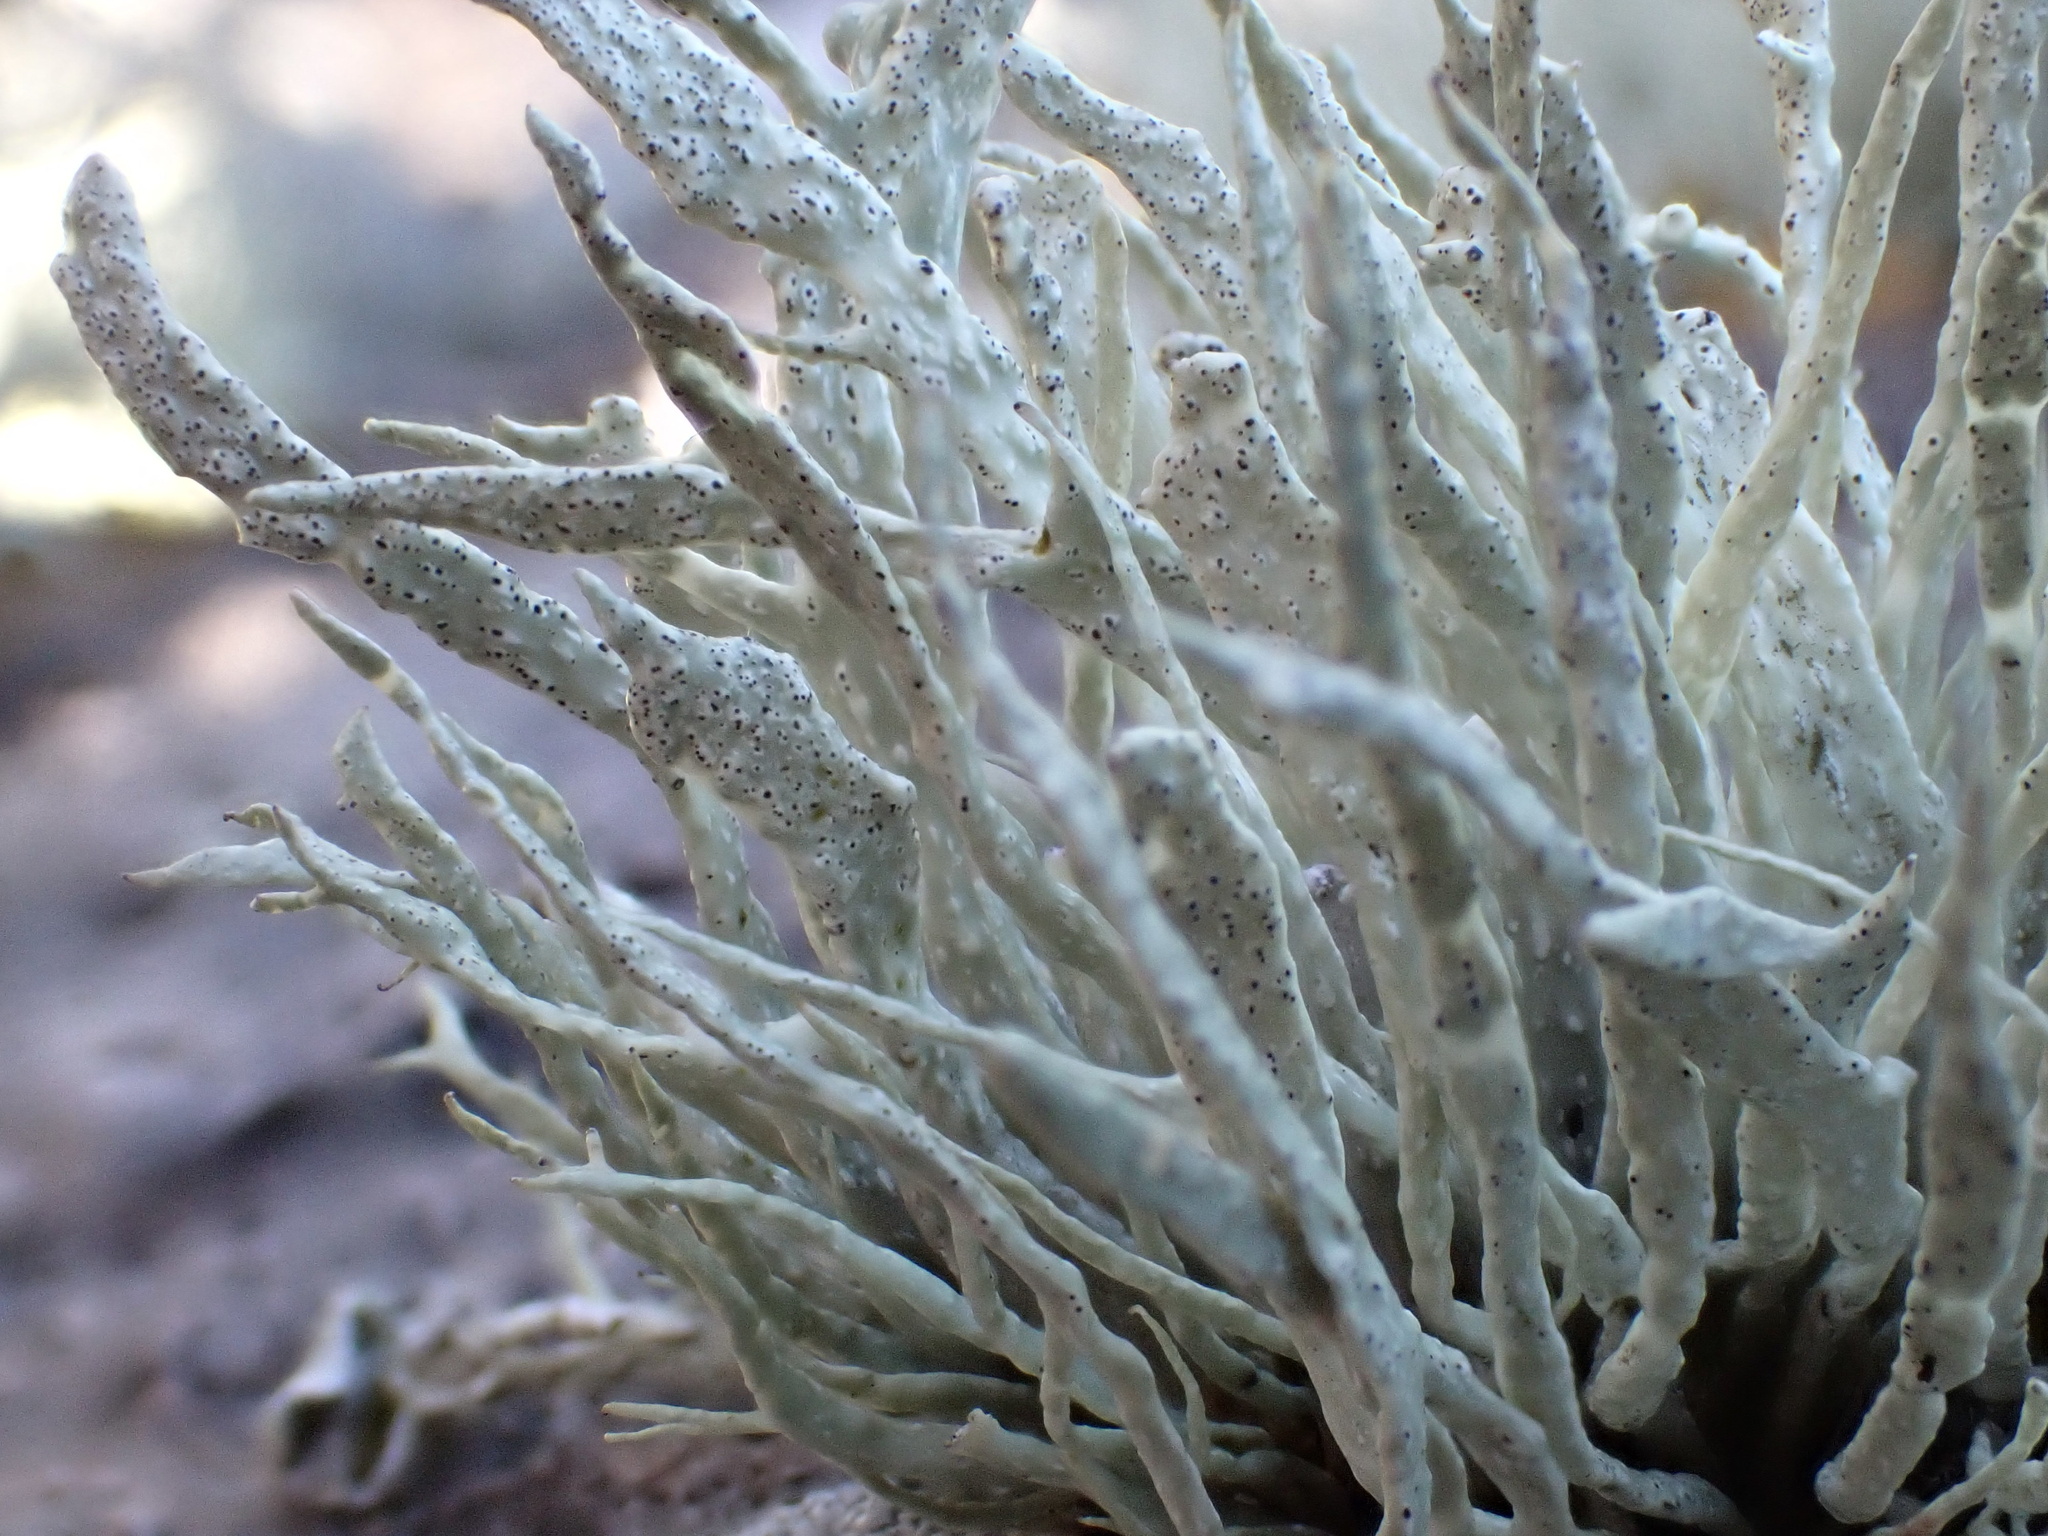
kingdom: Fungi
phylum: Ascomycota
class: Lecanoromycetes
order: Lecanorales
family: Ramalinaceae
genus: Ramalina
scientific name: Ramalina cuspidata
